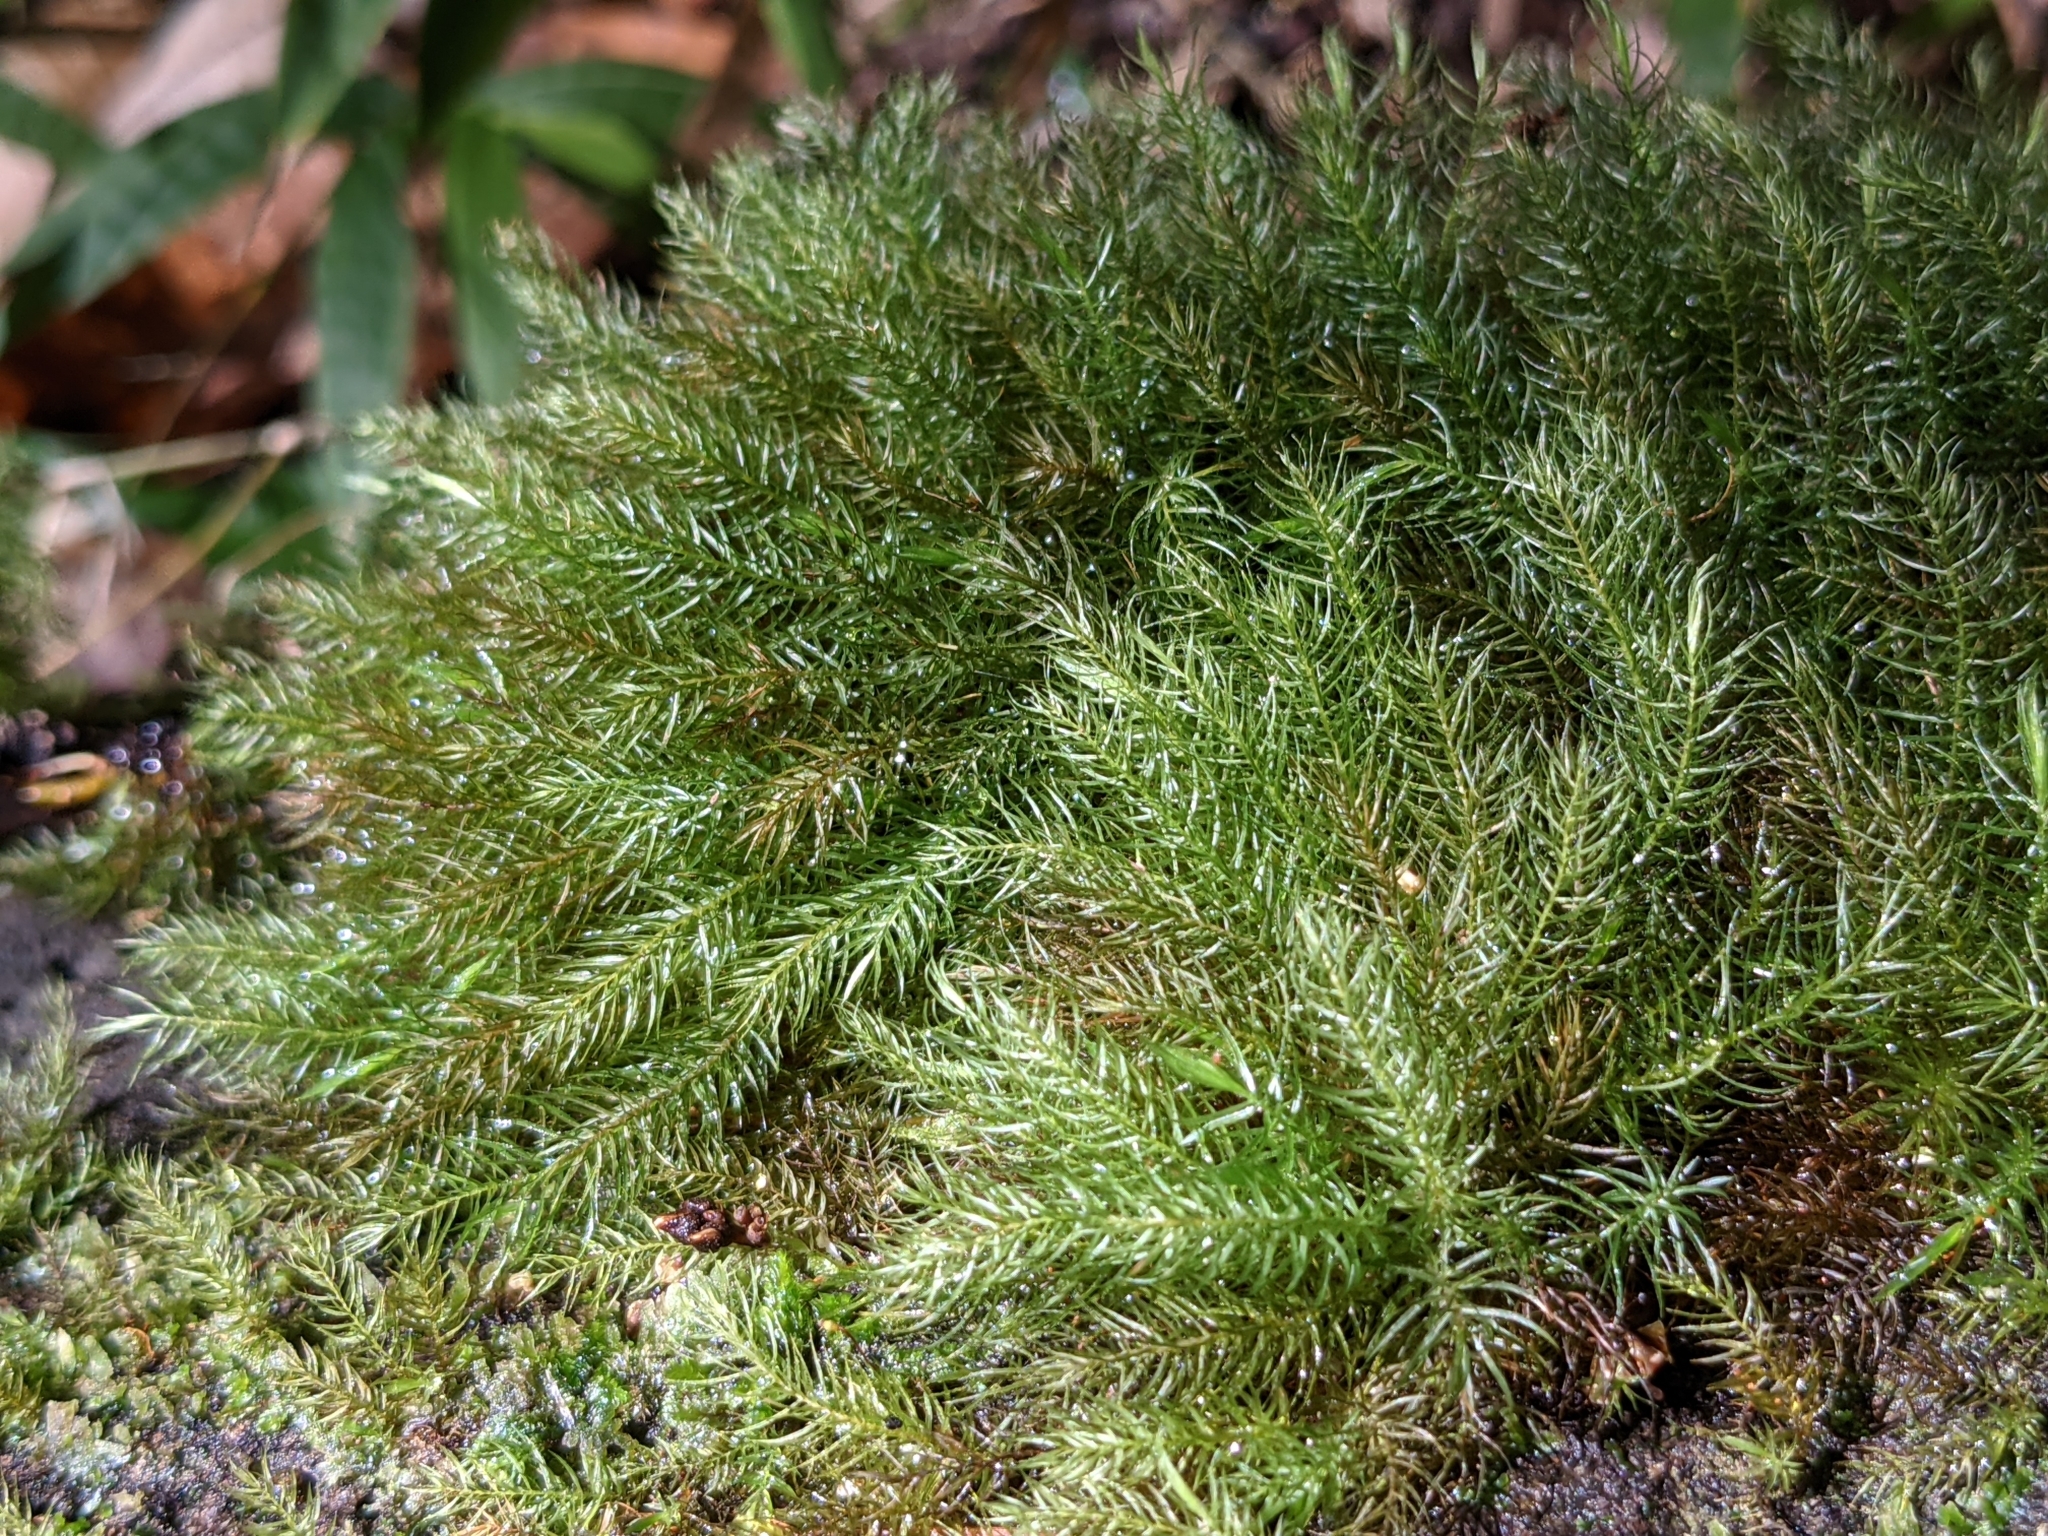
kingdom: Plantae
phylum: Bryophyta
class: Bryopsida
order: Rhizogoniales
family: Calomniaceae
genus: Pyrrhobryum
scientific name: Pyrrhobryum spiniforme
